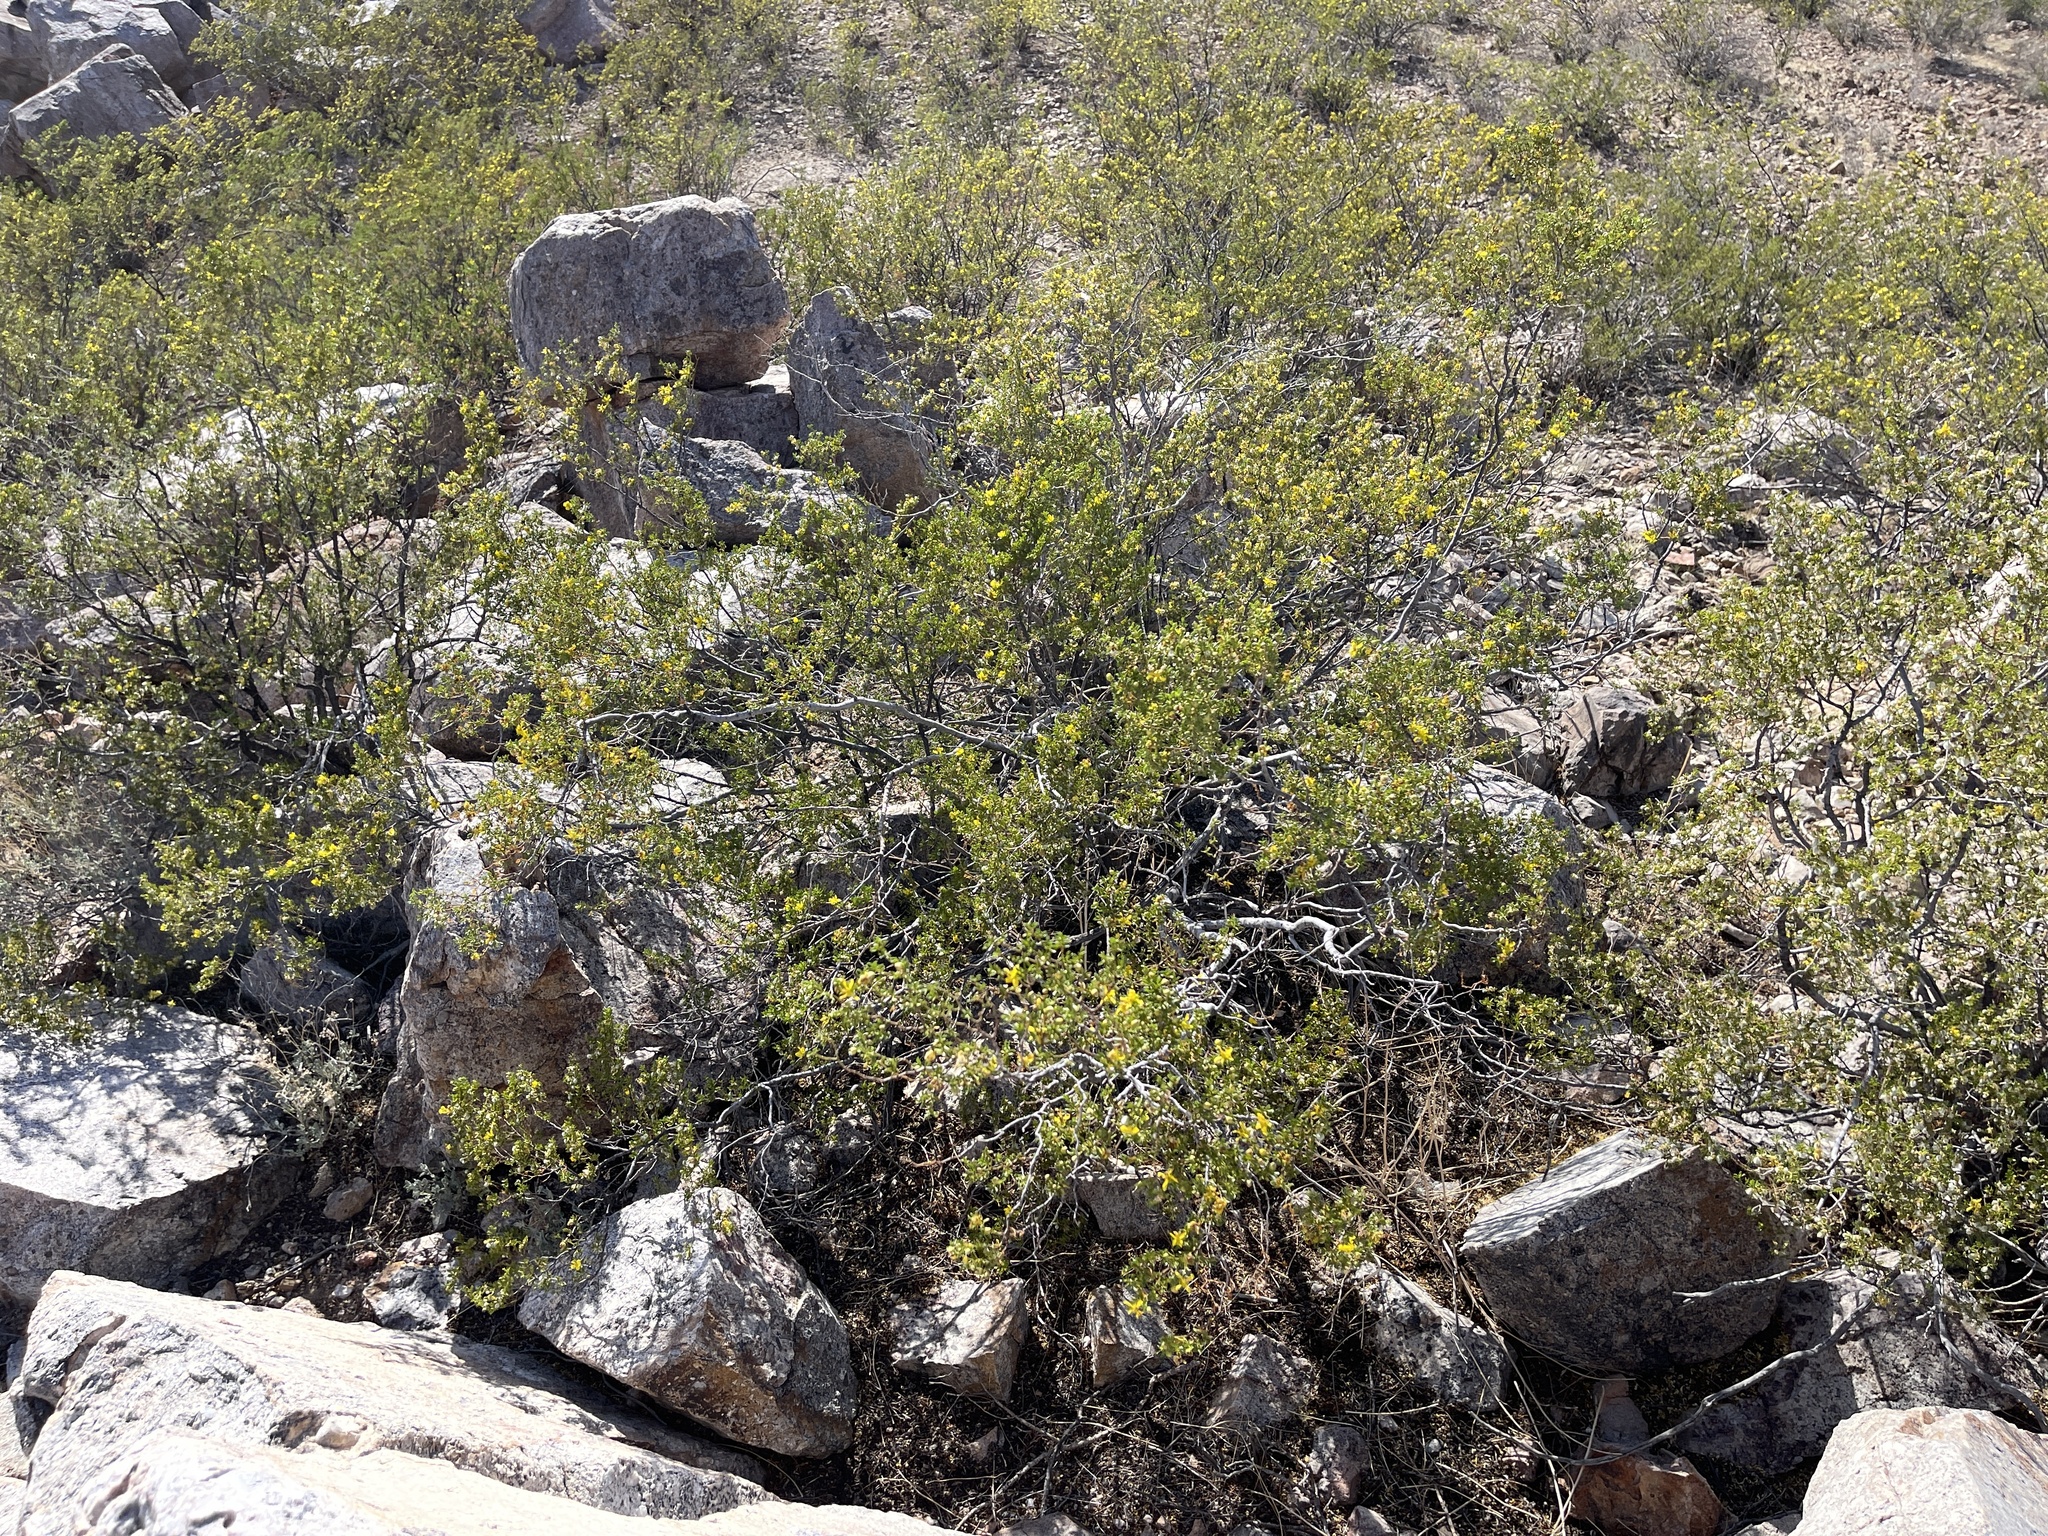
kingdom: Plantae
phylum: Tracheophyta
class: Magnoliopsida
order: Zygophyllales
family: Zygophyllaceae
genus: Larrea
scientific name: Larrea tridentata
